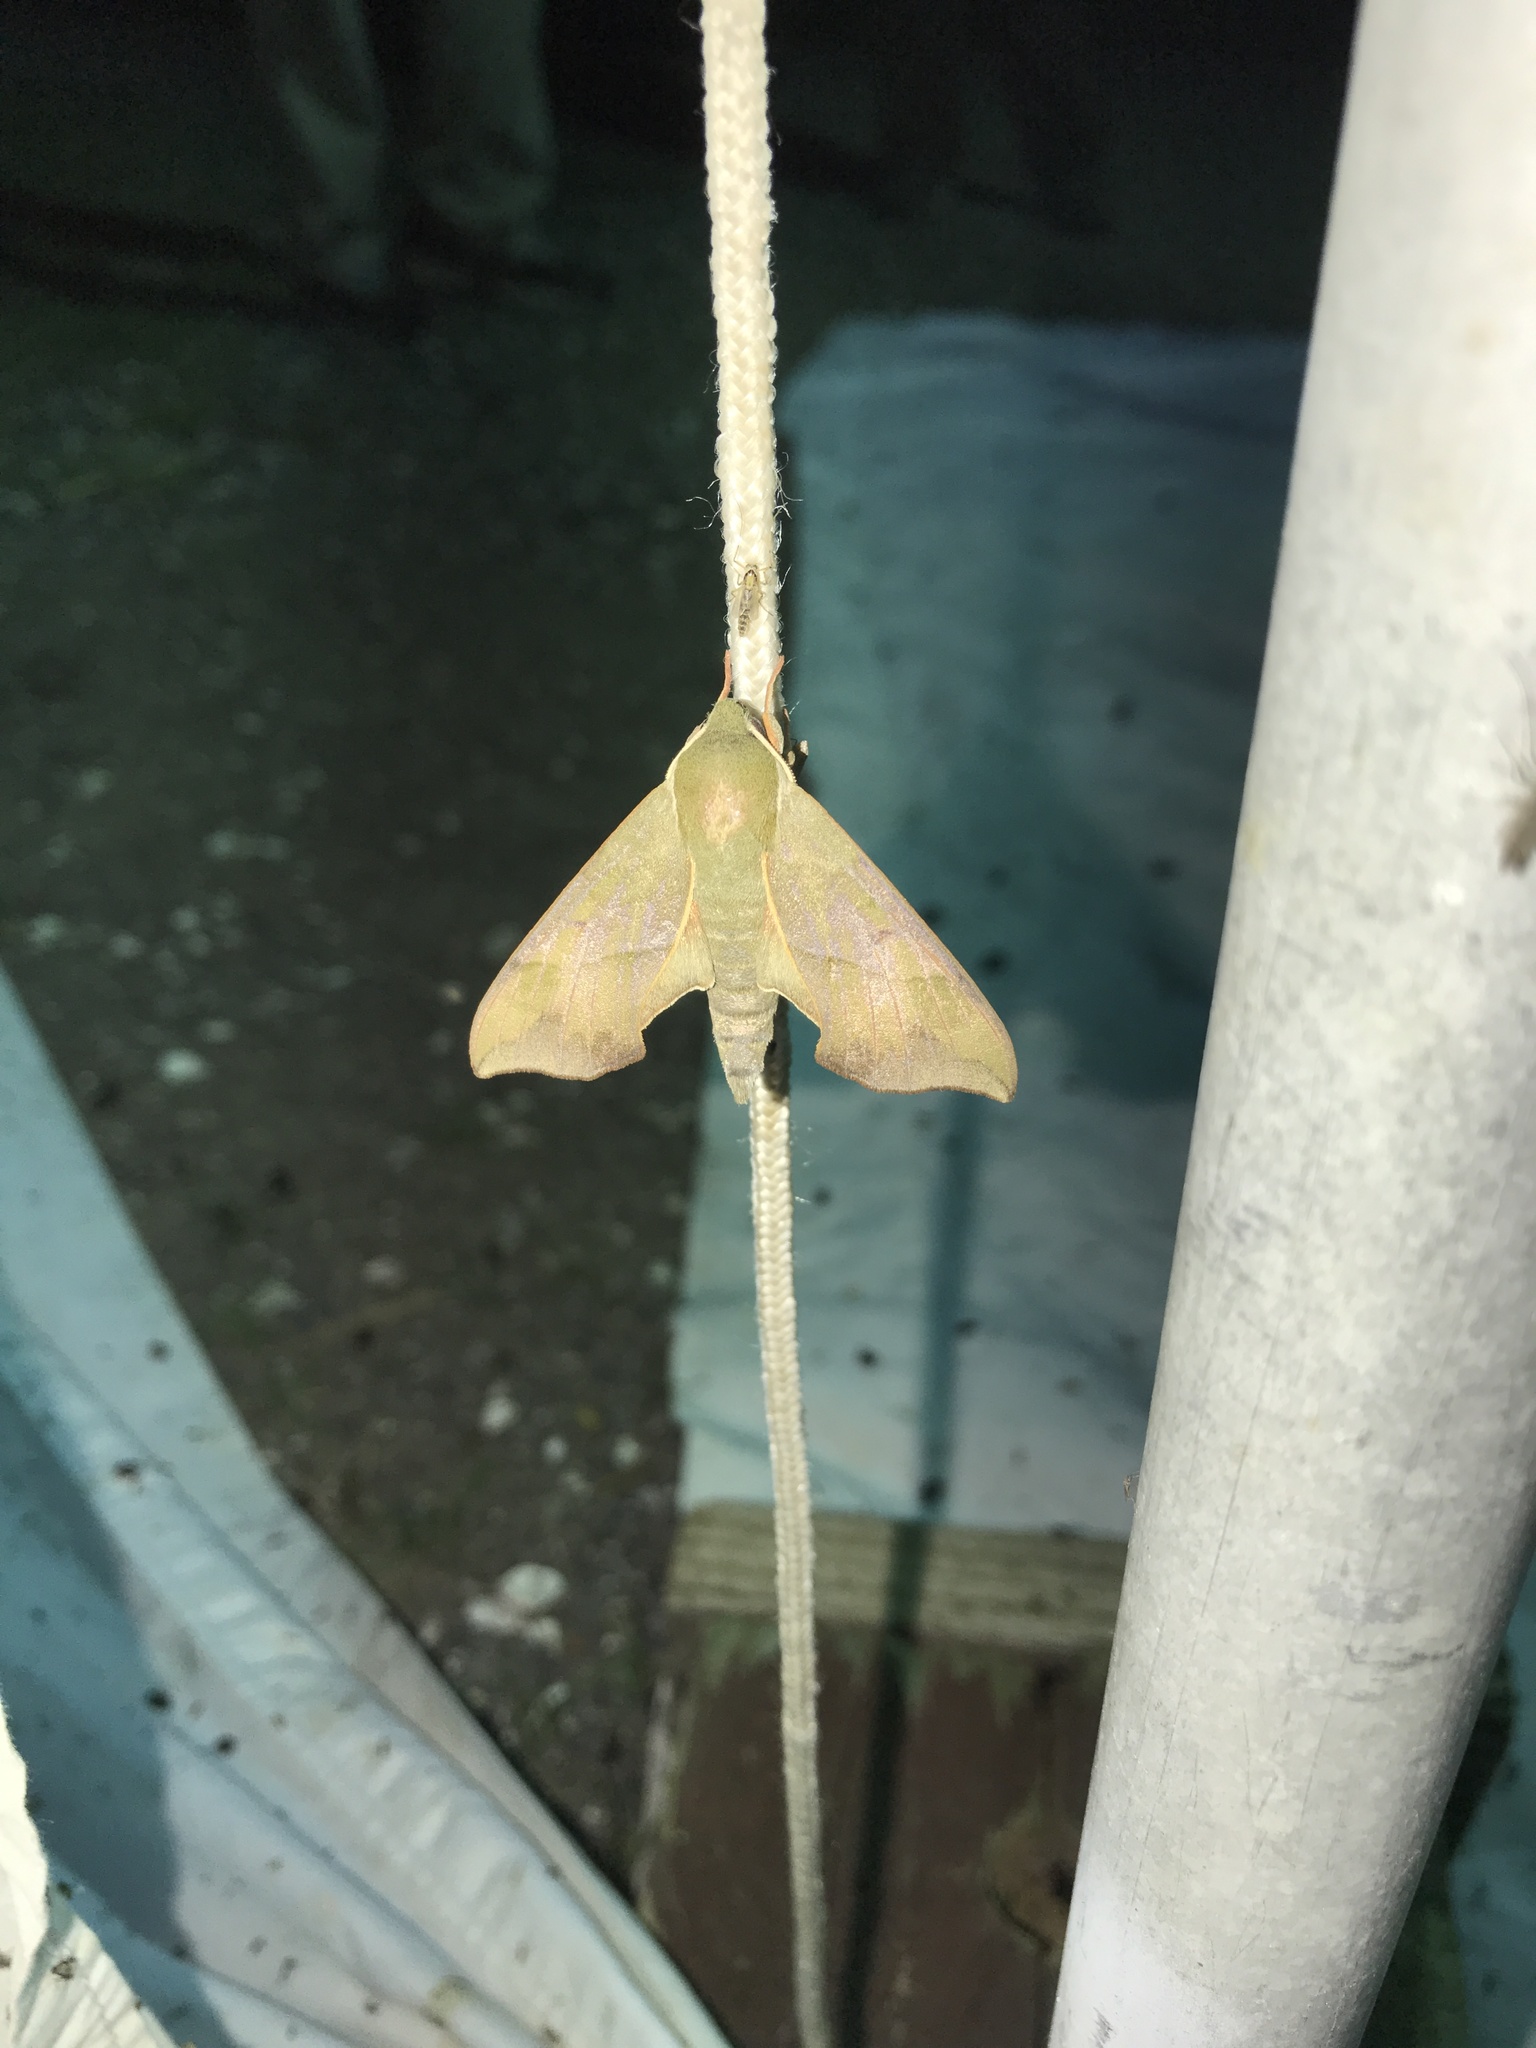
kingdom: Animalia
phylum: Arthropoda
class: Insecta
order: Lepidoptera
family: Sphingidae
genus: Darapsa
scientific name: Darapsa myron
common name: Hog sphinx
